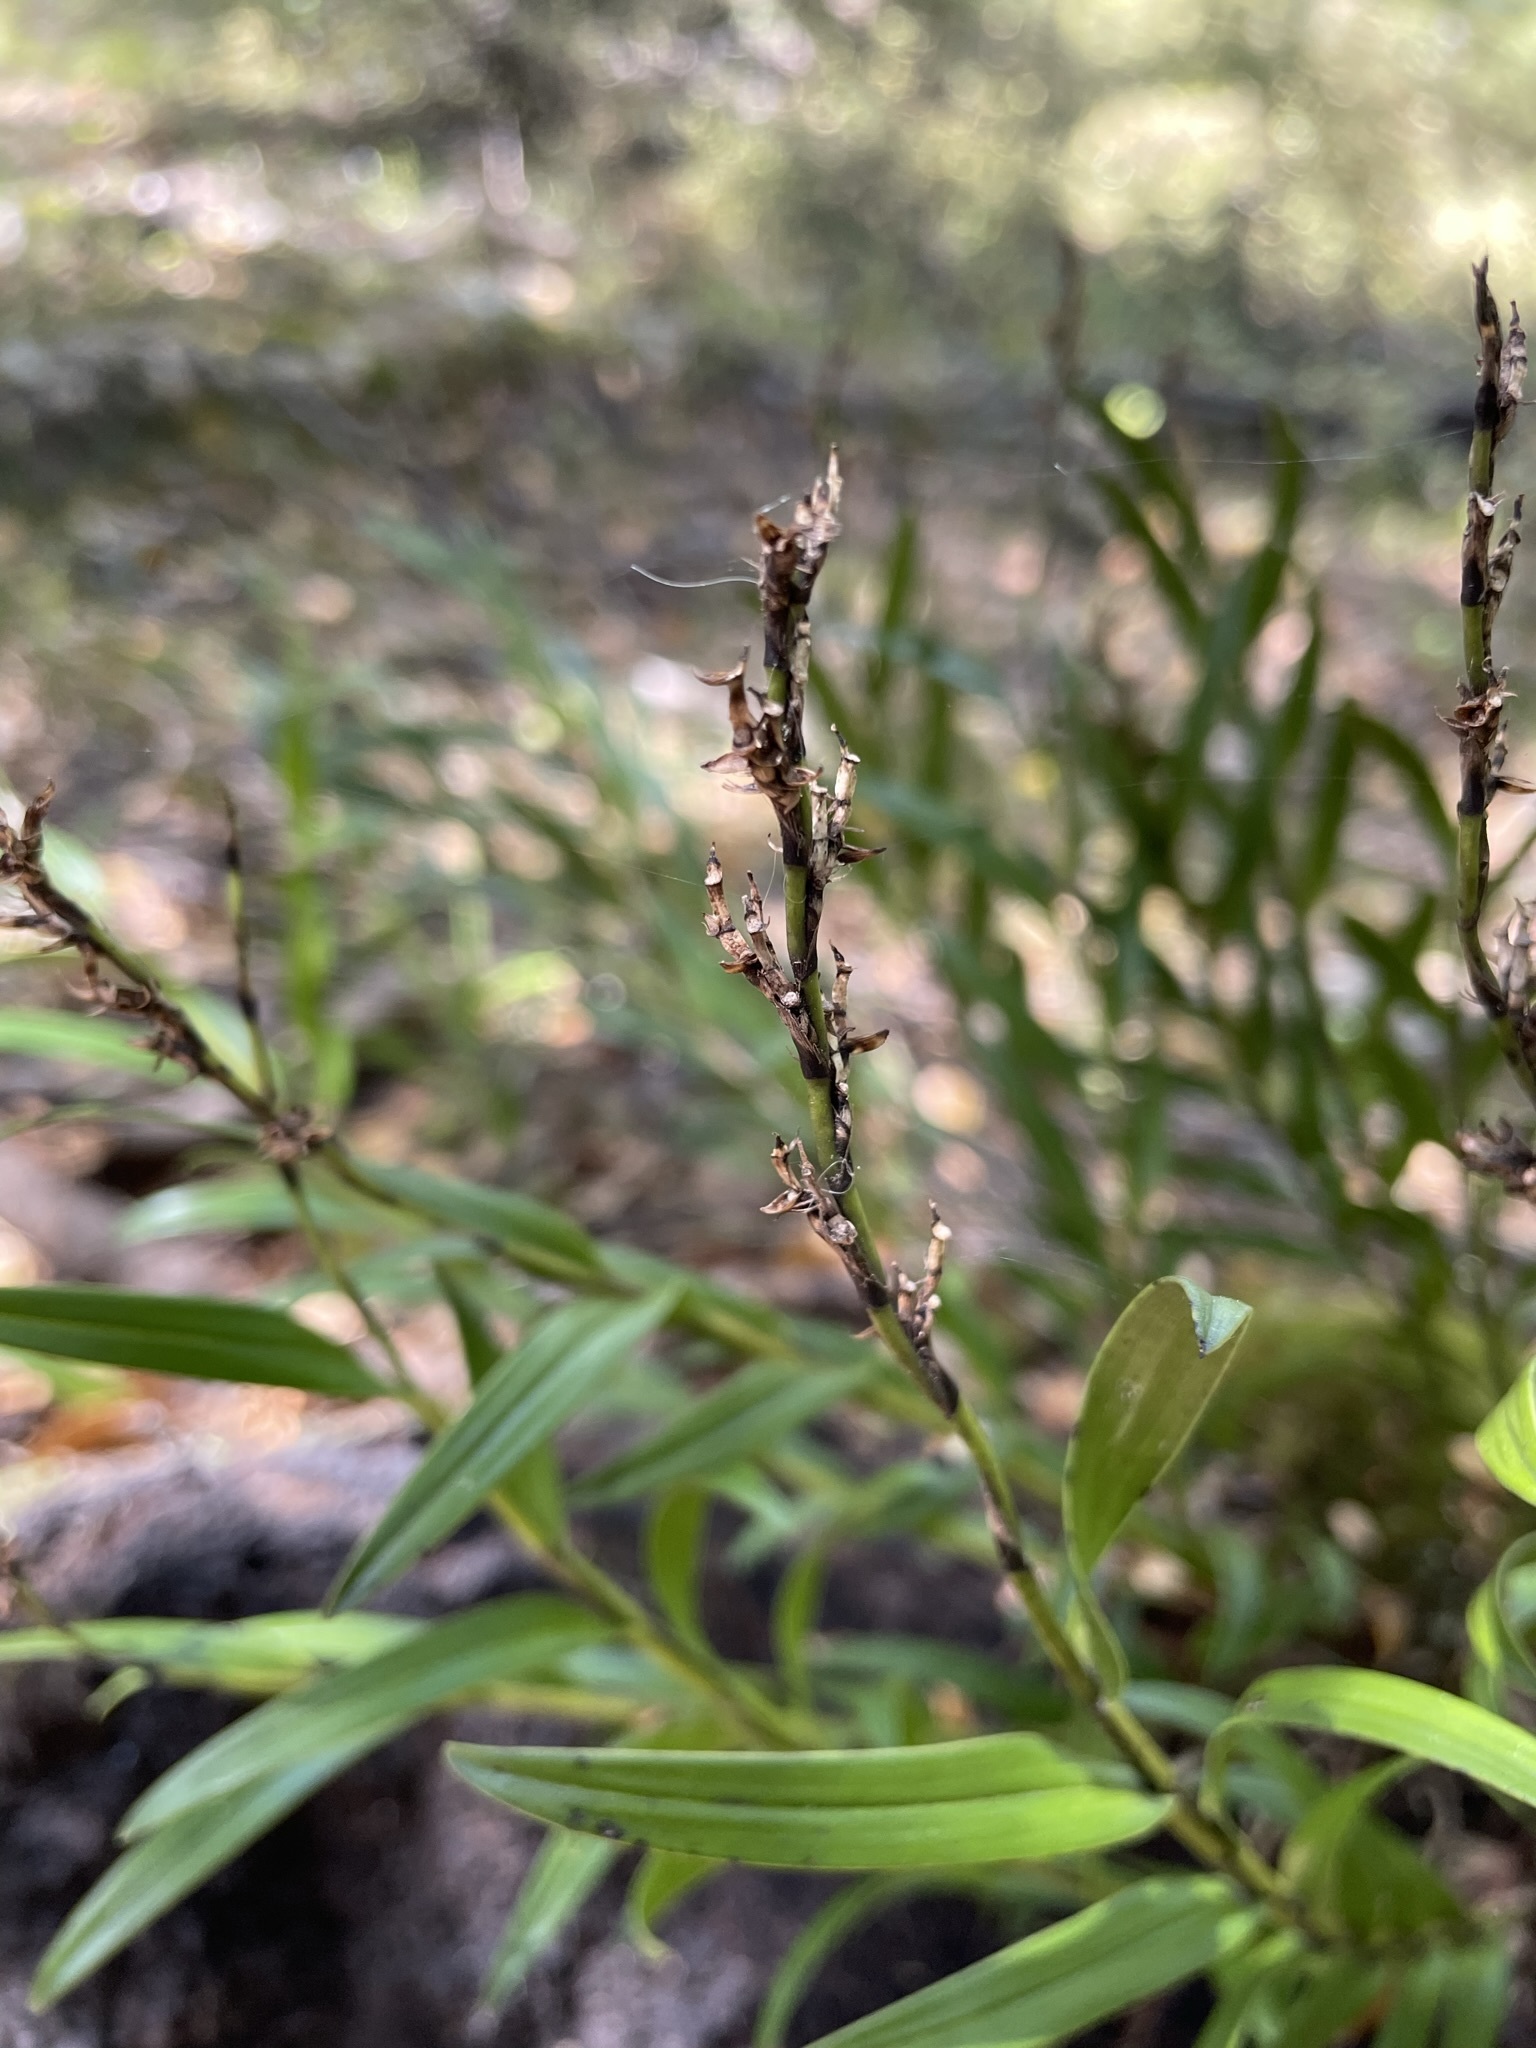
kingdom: Plantae
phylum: Tracheophyta
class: Liliopsida
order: Asparagales
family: Orchidaceae
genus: Earina
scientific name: Earina autumnalis
